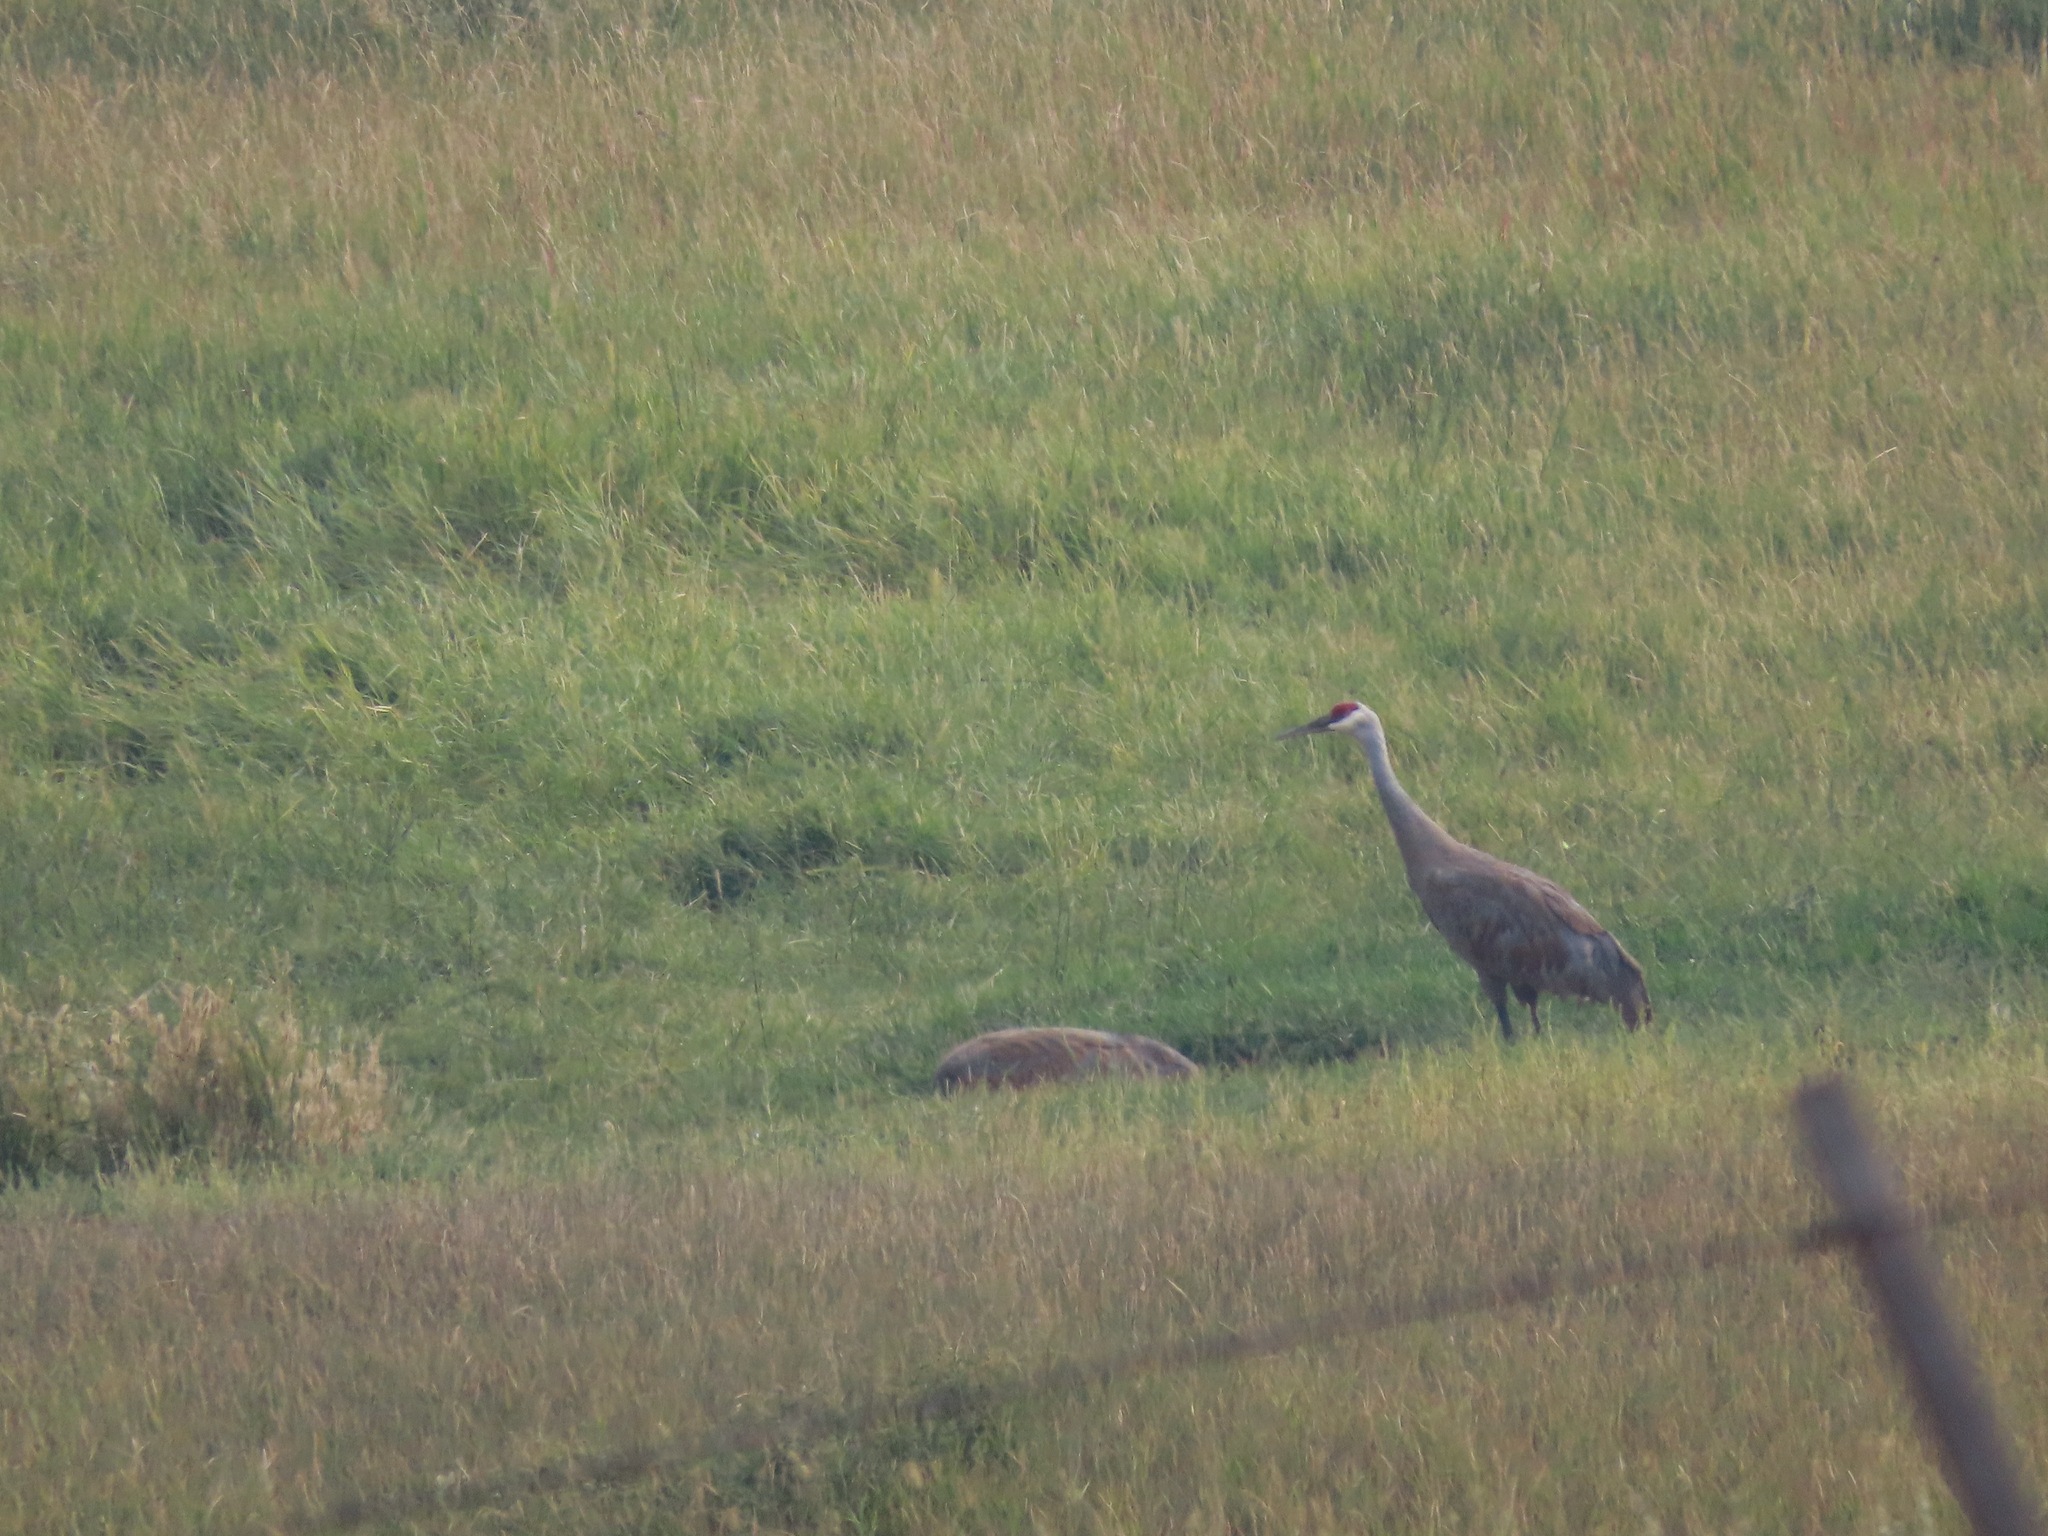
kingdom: Animalia
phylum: Chordata
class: Aves
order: Gruiformes
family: Gruidae
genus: Grus
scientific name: Grus canadensis
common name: Sandhill crane
